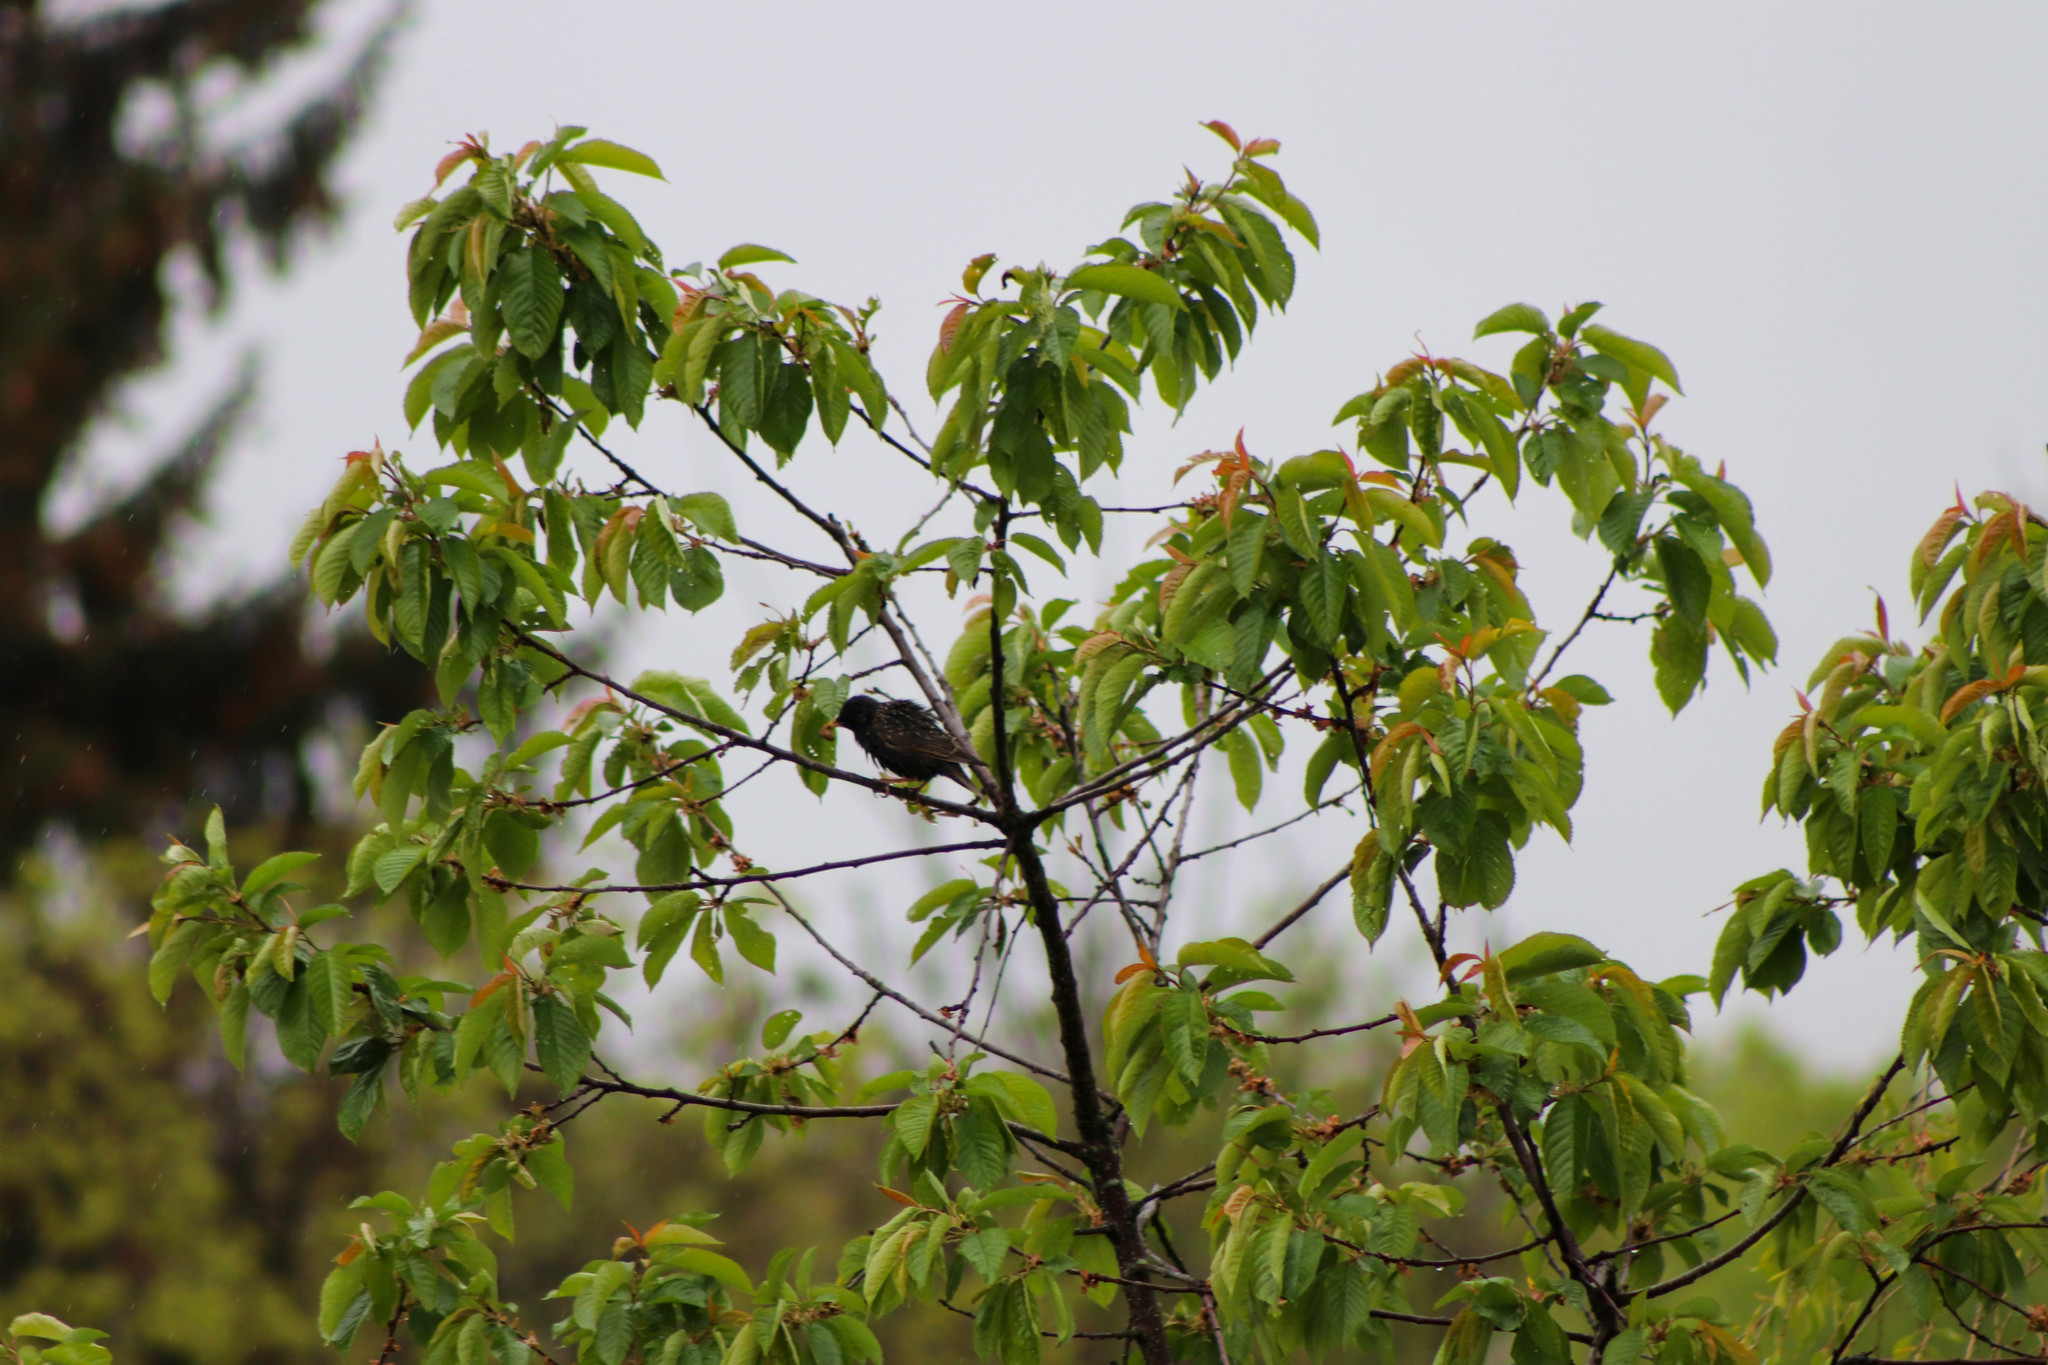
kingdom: Animalia
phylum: Chordata
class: Aves
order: Passeriformes
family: Sturnidae
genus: Sturnus
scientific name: Sturnus vulgaris
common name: Common starling
